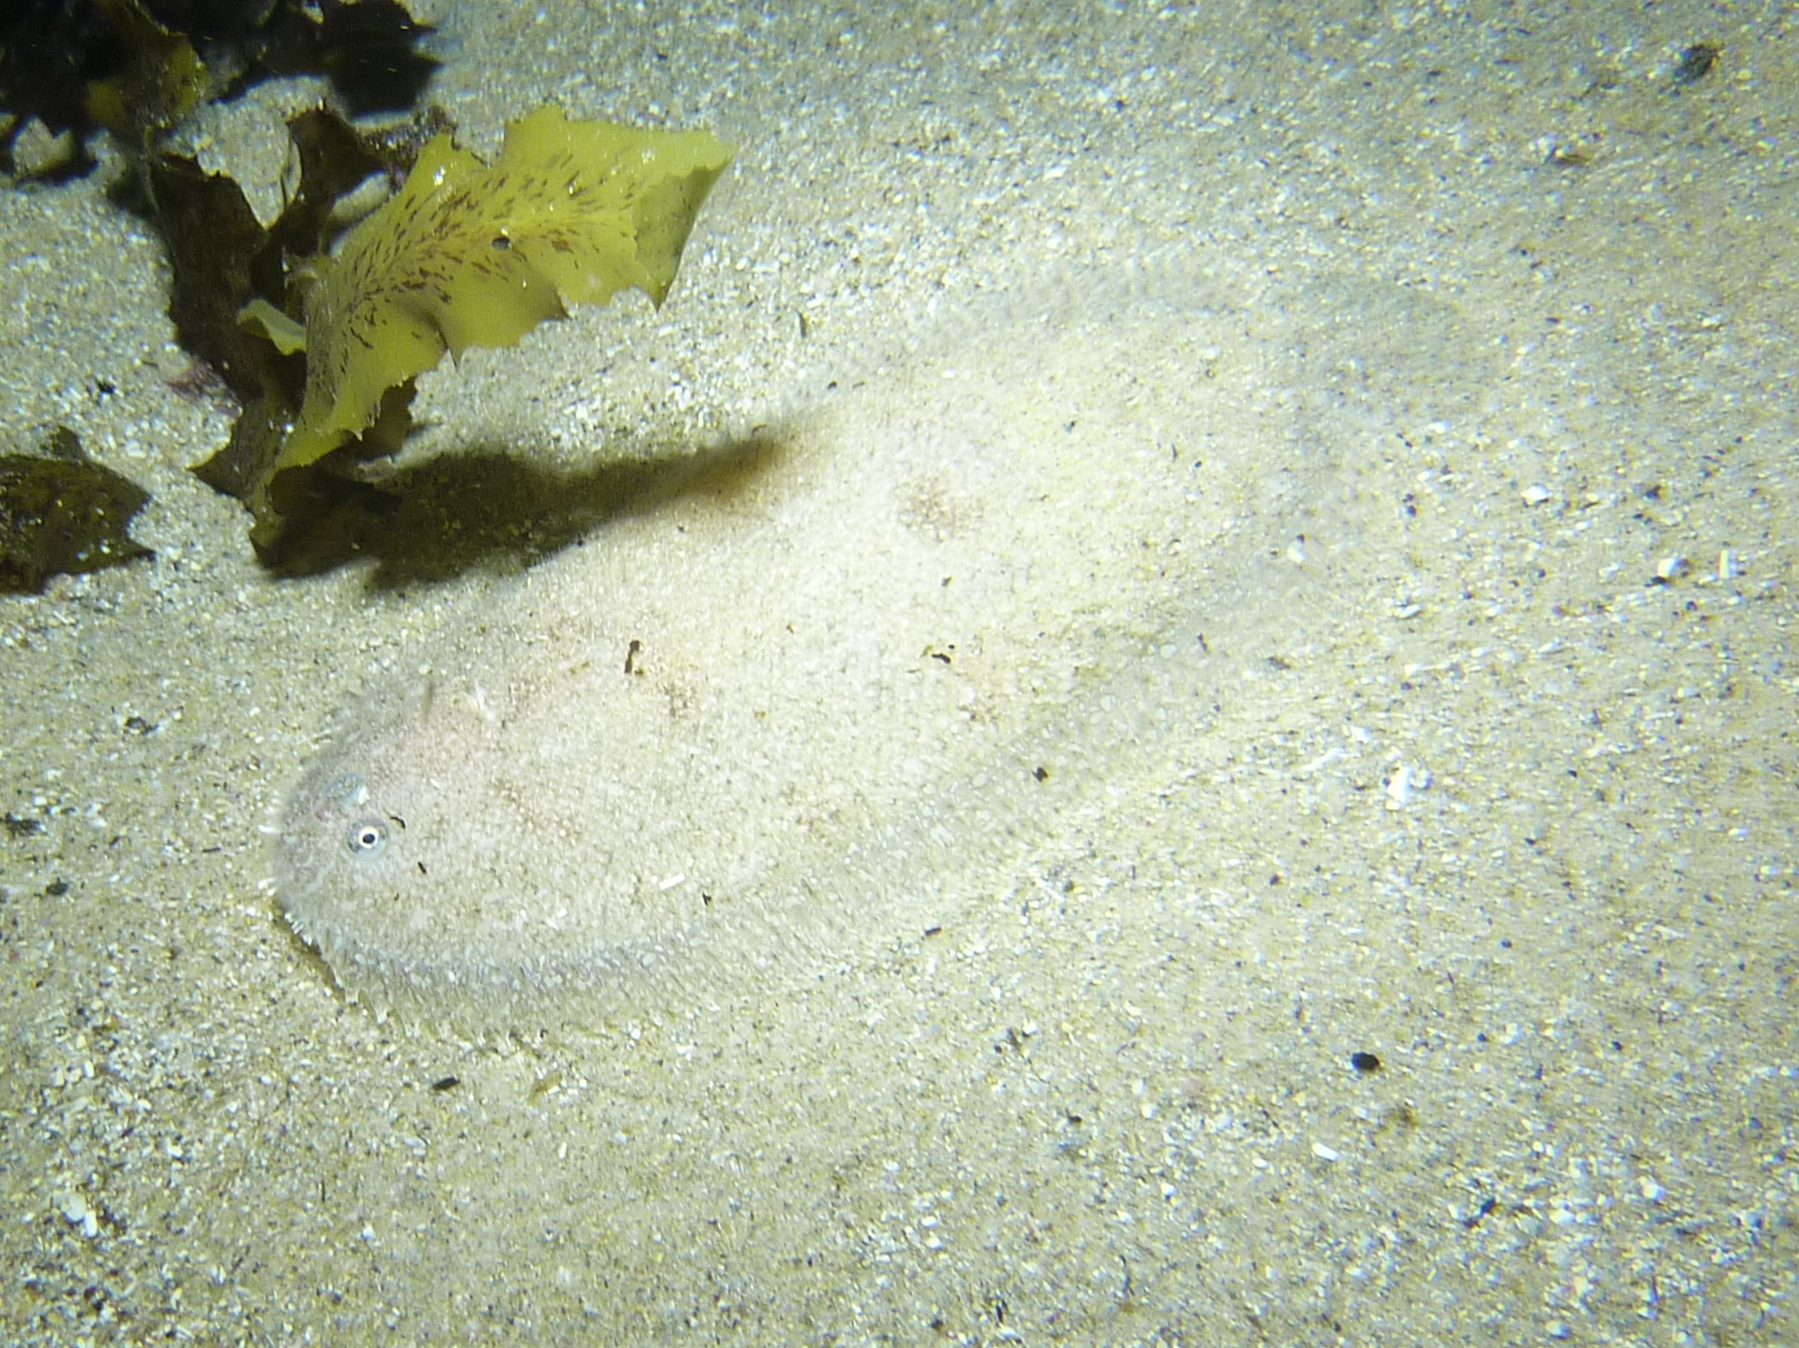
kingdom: Animalia
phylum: Chordata
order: Pleuronectiformes
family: Soleidae
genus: Aseraggodes
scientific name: Aseraggodes lenisquamis
